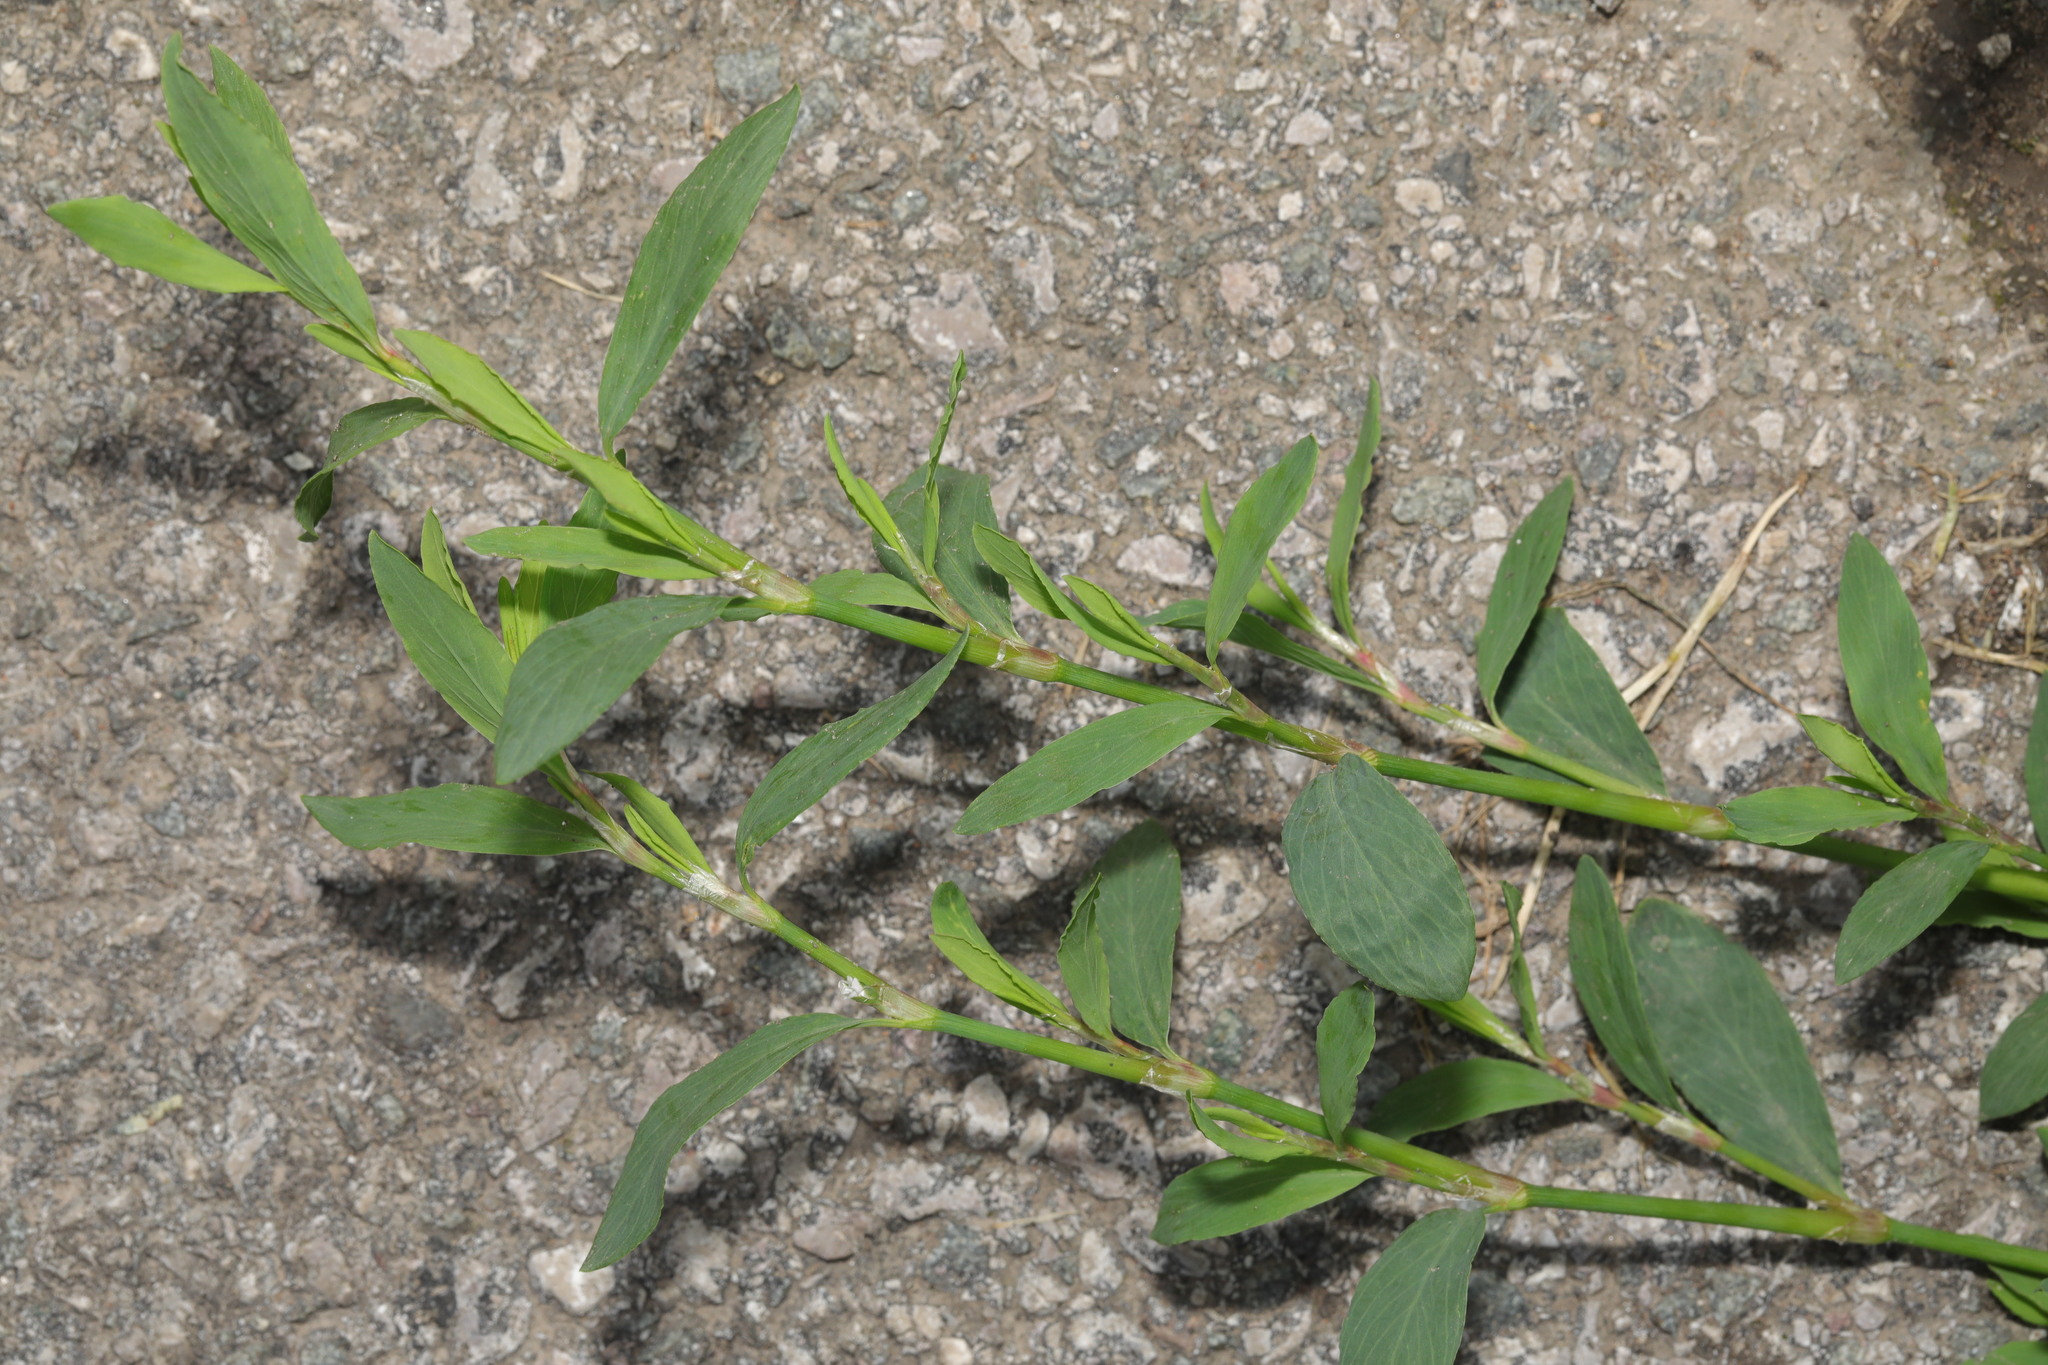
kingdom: Plantae
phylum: Tracheophyta
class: Magnoliopsida
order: Caryophyllales
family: Polygonaceae
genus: Polygonum
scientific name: Polygonum aviculare
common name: Prostrate knotweed
